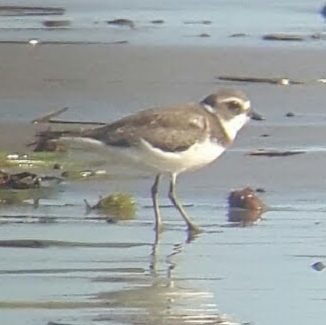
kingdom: Animalia
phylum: Chordata
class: Aves
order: Charadriiformes
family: Charadriidae
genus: Charadrius
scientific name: Charadrius semipalmatus
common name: Semipalmated plover
